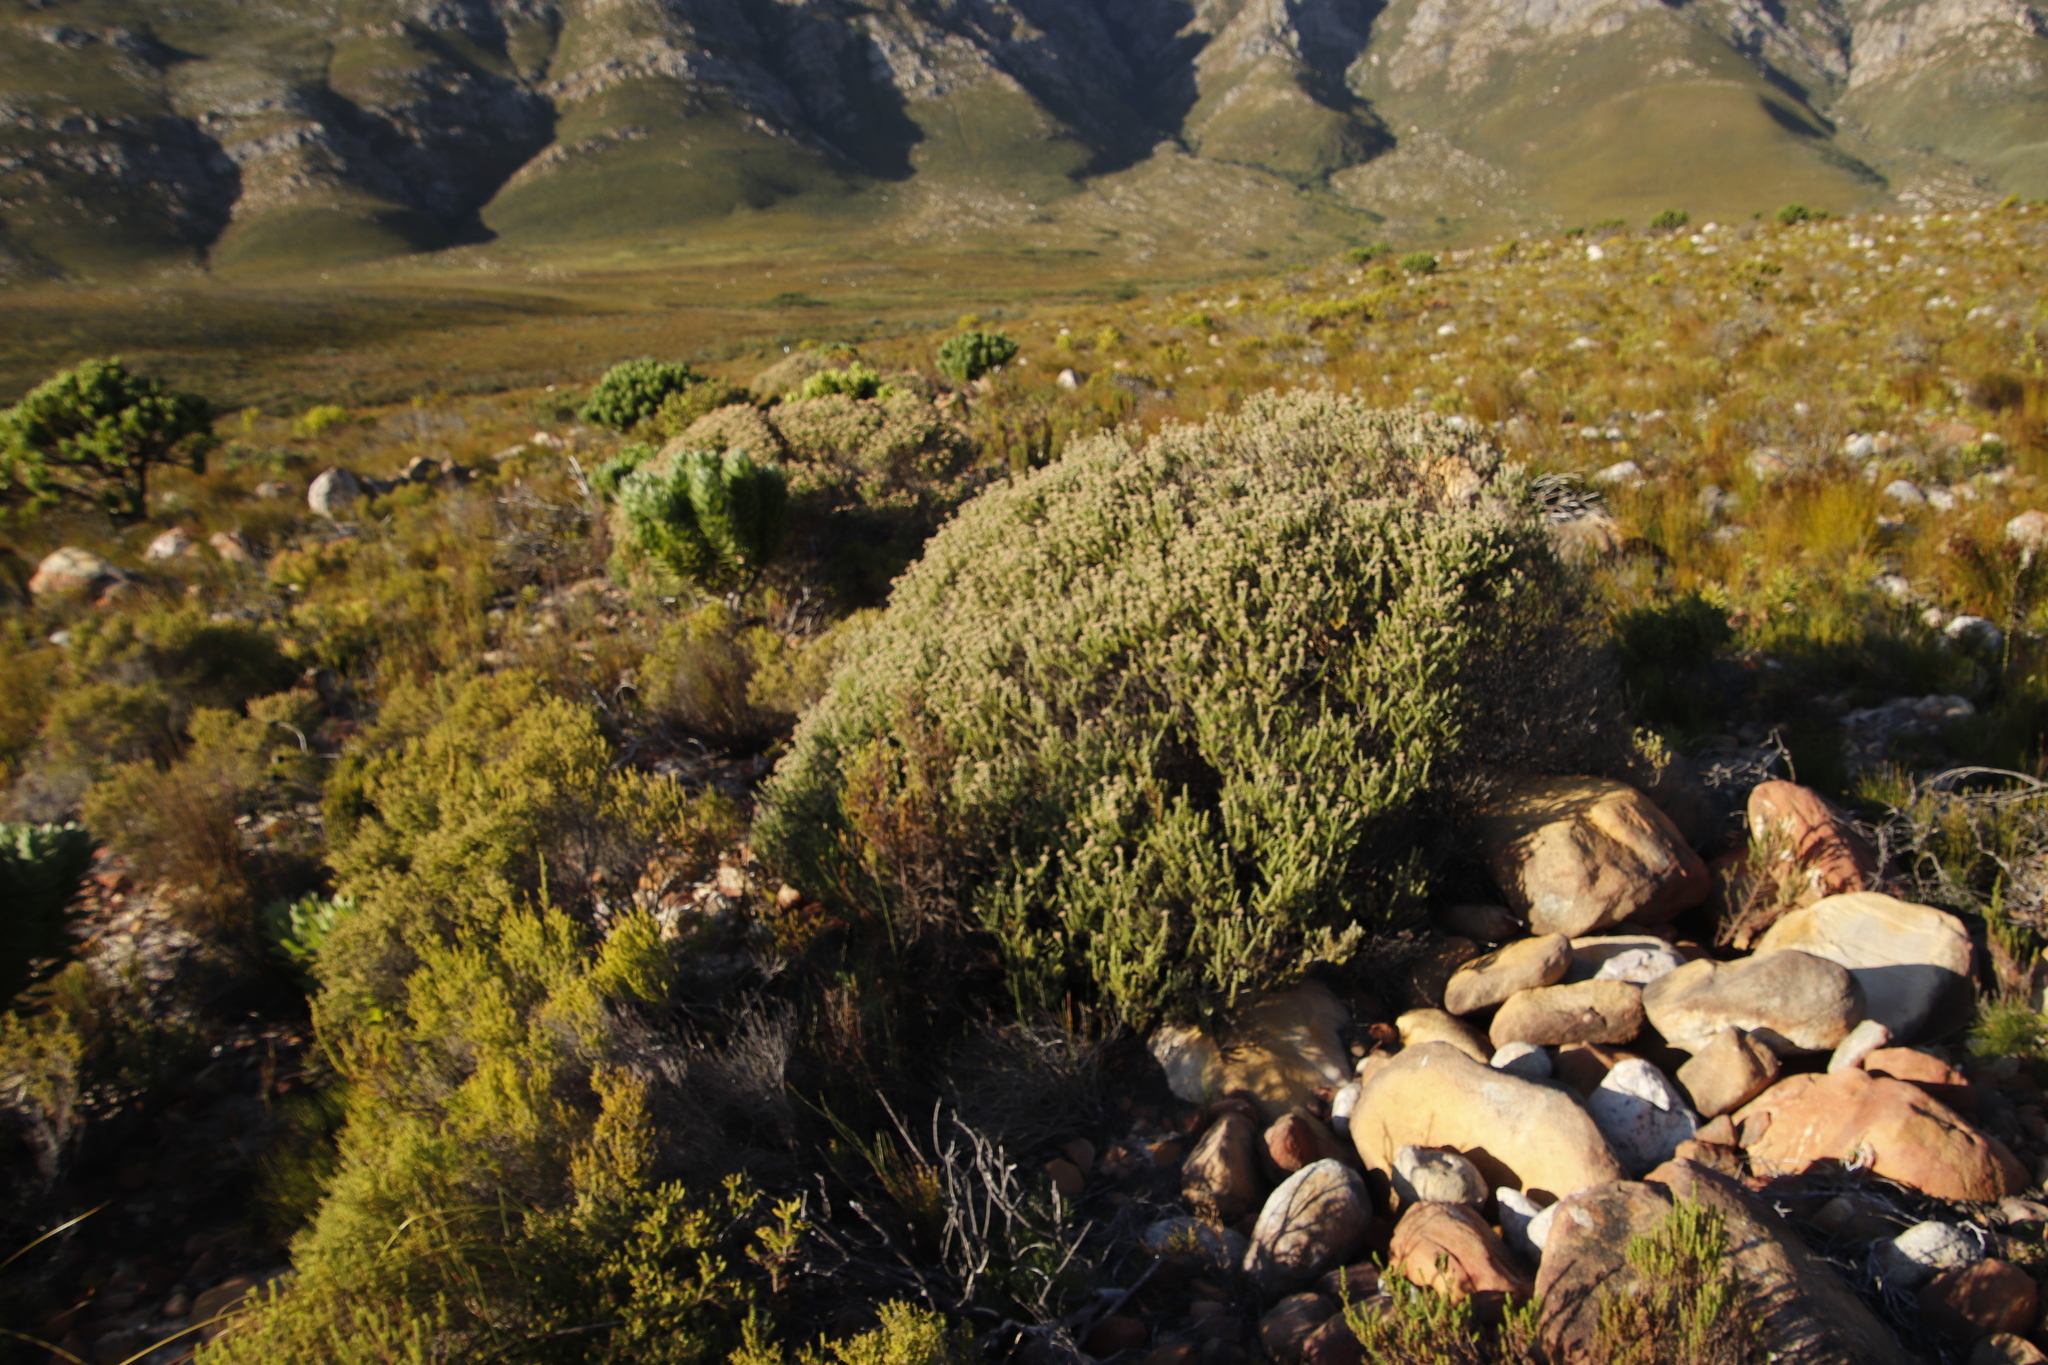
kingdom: Plantae
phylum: Tracheophyta
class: Magnoliopsida
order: Asterales
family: Asteraceae
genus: Metalasia
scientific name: Metalasia densa
